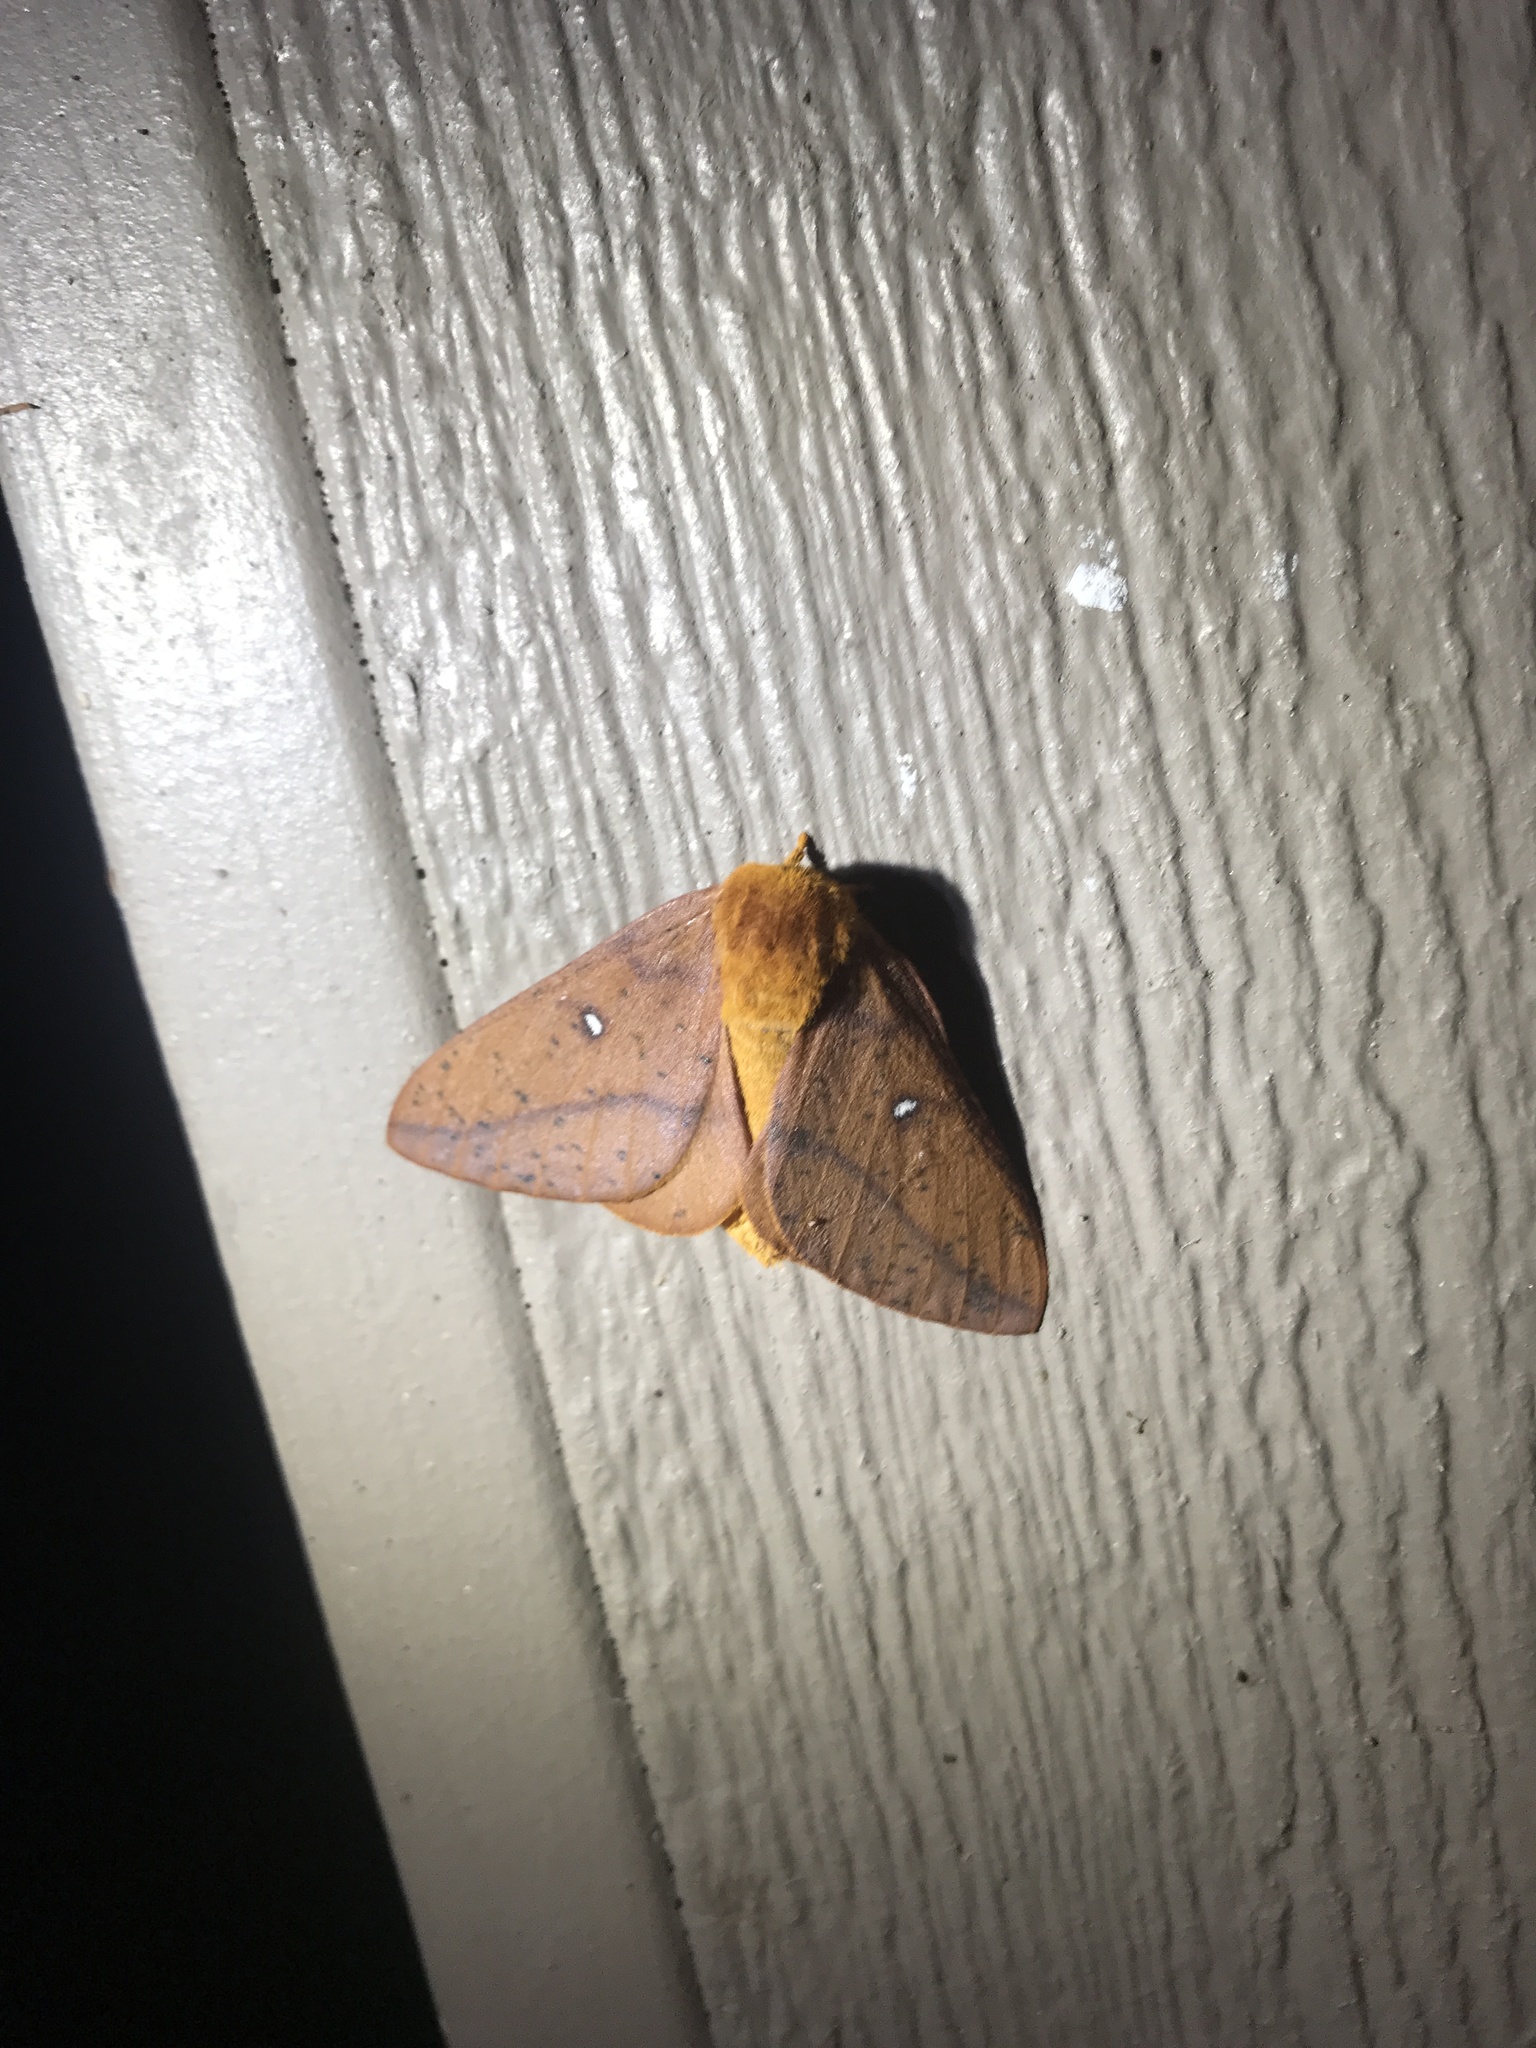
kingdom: Animalia
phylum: Arthropoda
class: Insecta
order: Lepidoptera
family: Saturniidae
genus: Anisota
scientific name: Anisota stigma
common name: Spiny oakworm moth
